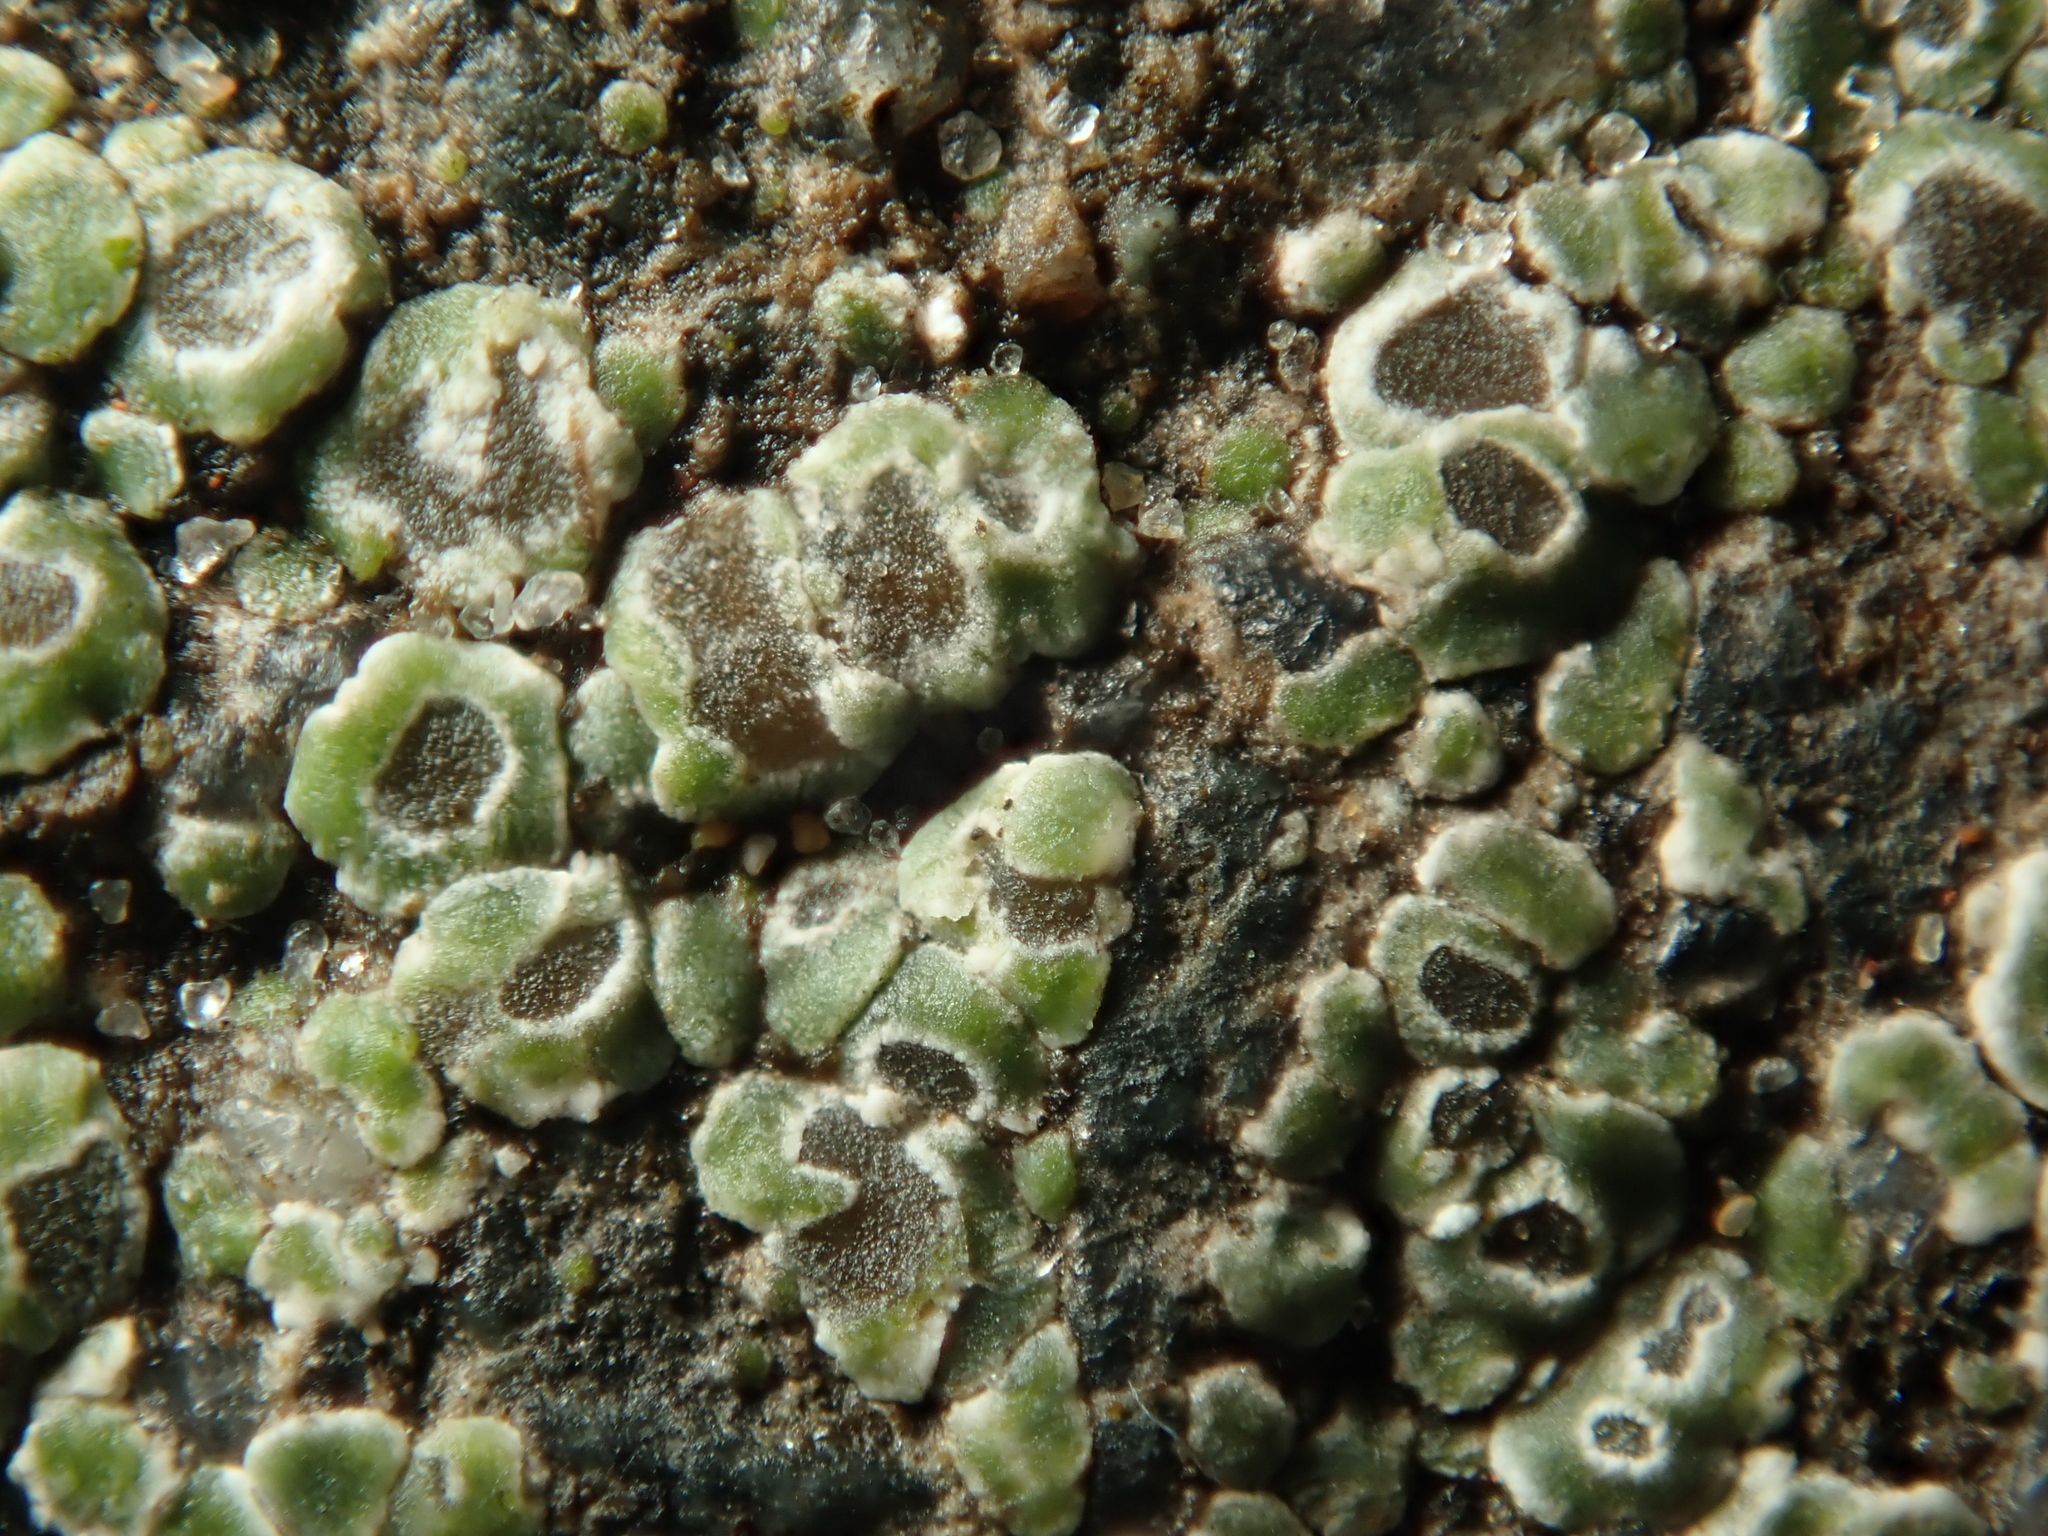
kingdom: Fungi
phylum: Ascomycota
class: Lecanoromycetes
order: Pertusariales
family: Megasporaceae
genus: Circinaria
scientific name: Circinaria contorta
